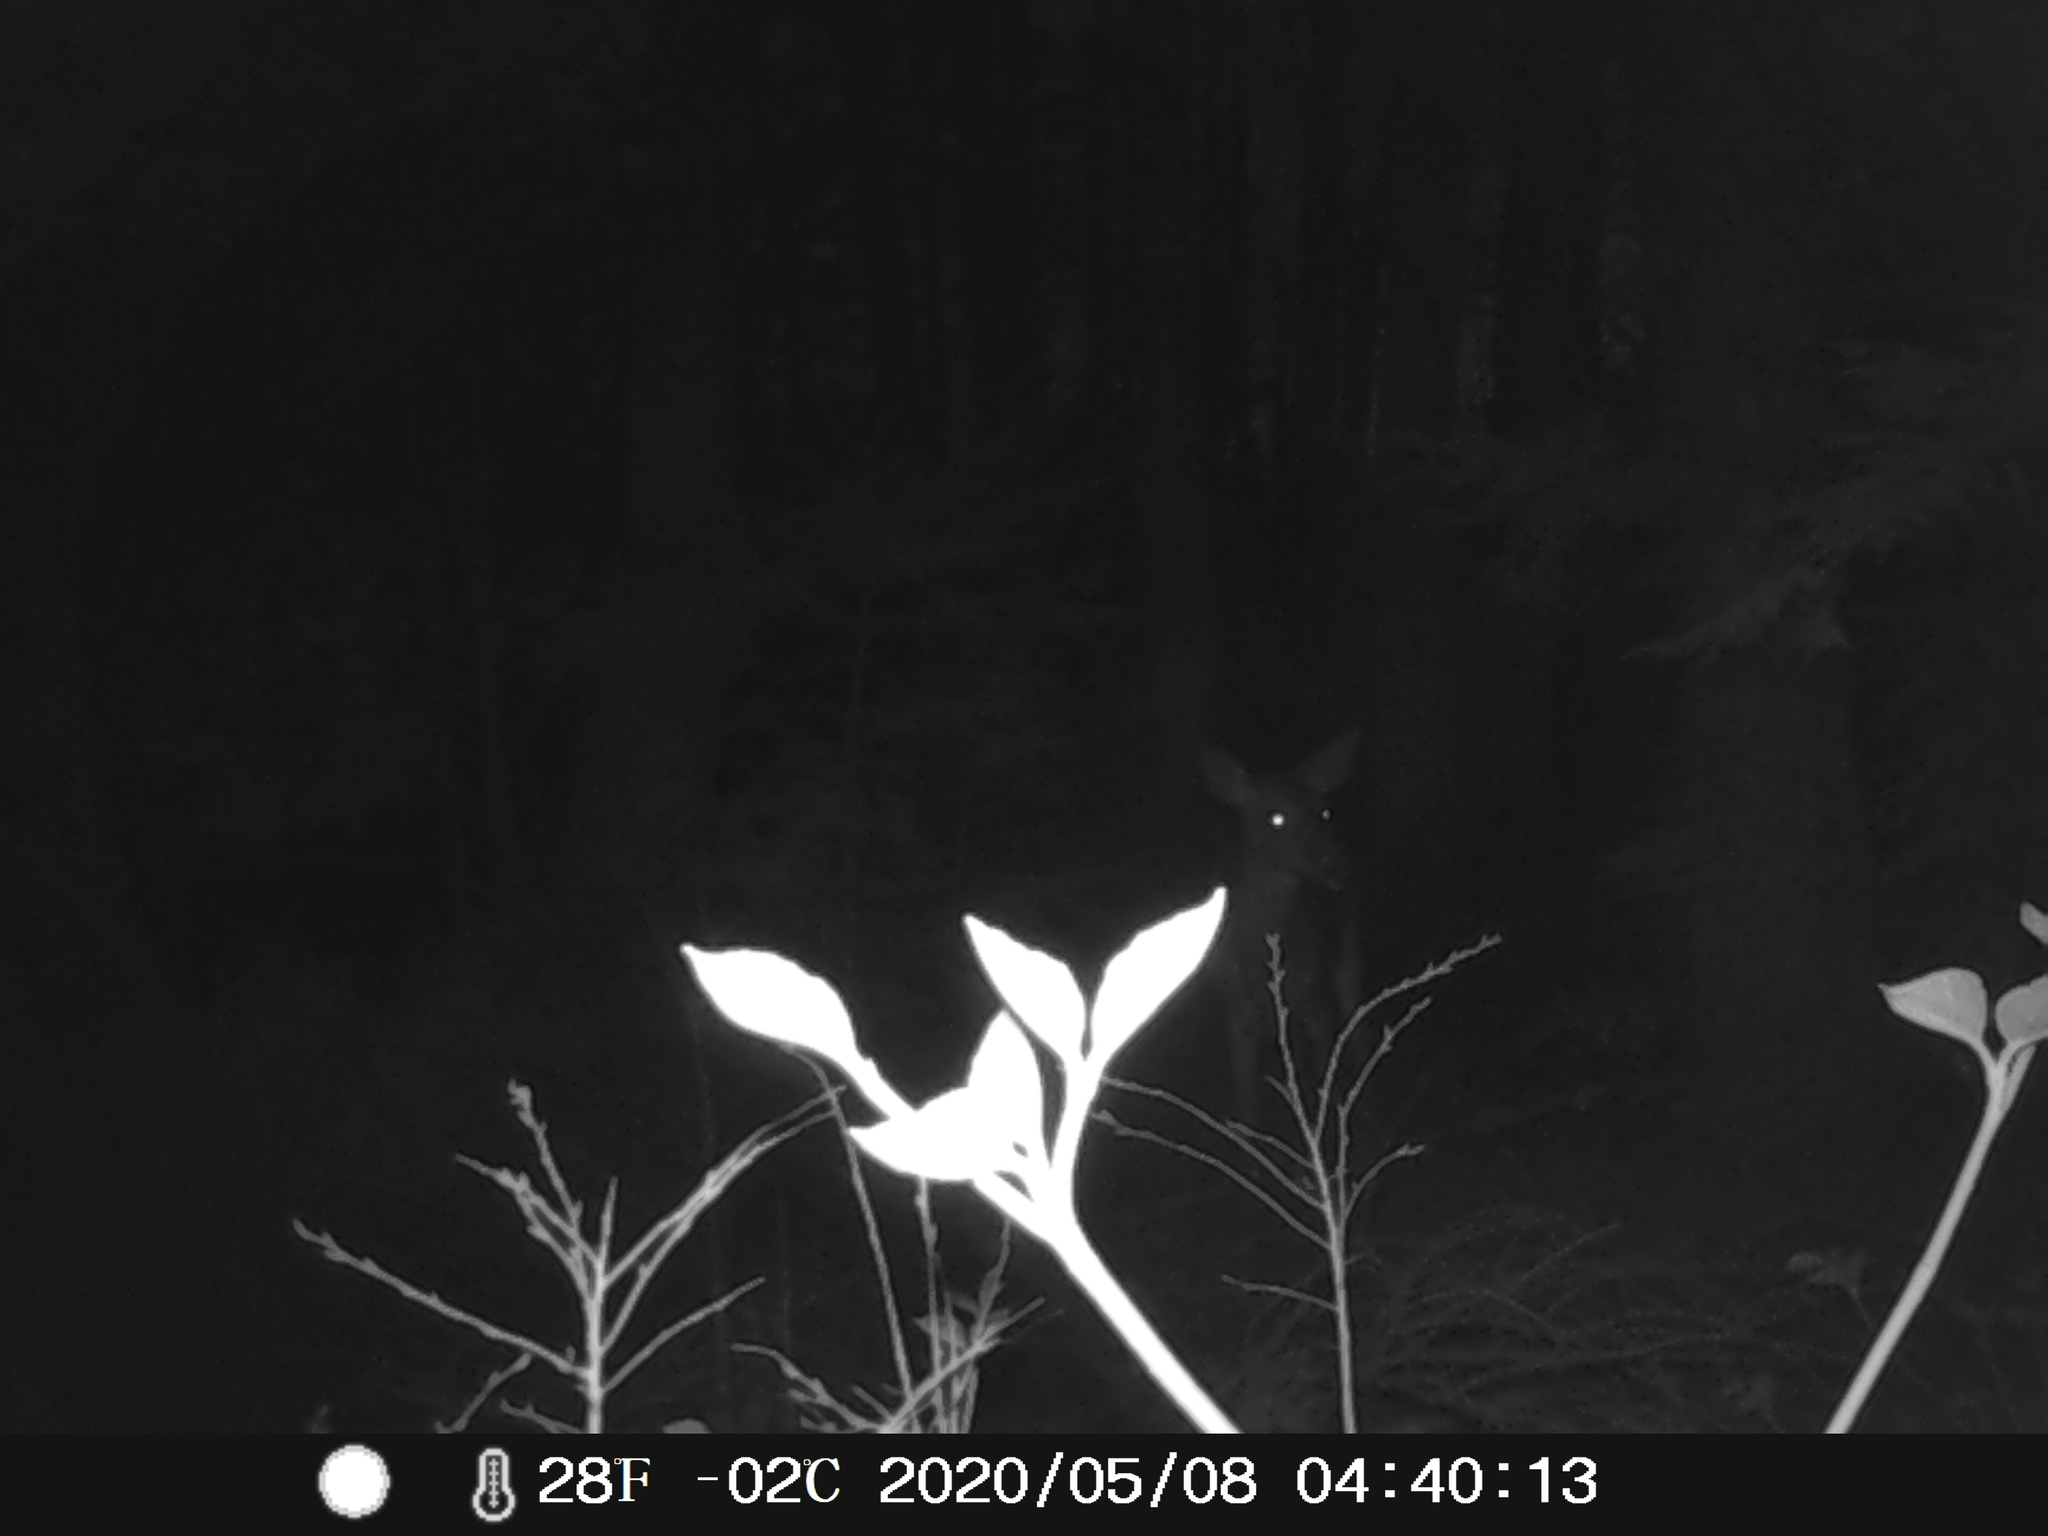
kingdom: Animalia
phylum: Chordata
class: Mammalia
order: Artiodactyla
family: Cervidae
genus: Odocoileus
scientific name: Odocoileus virginianus
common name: White-tailed deer
